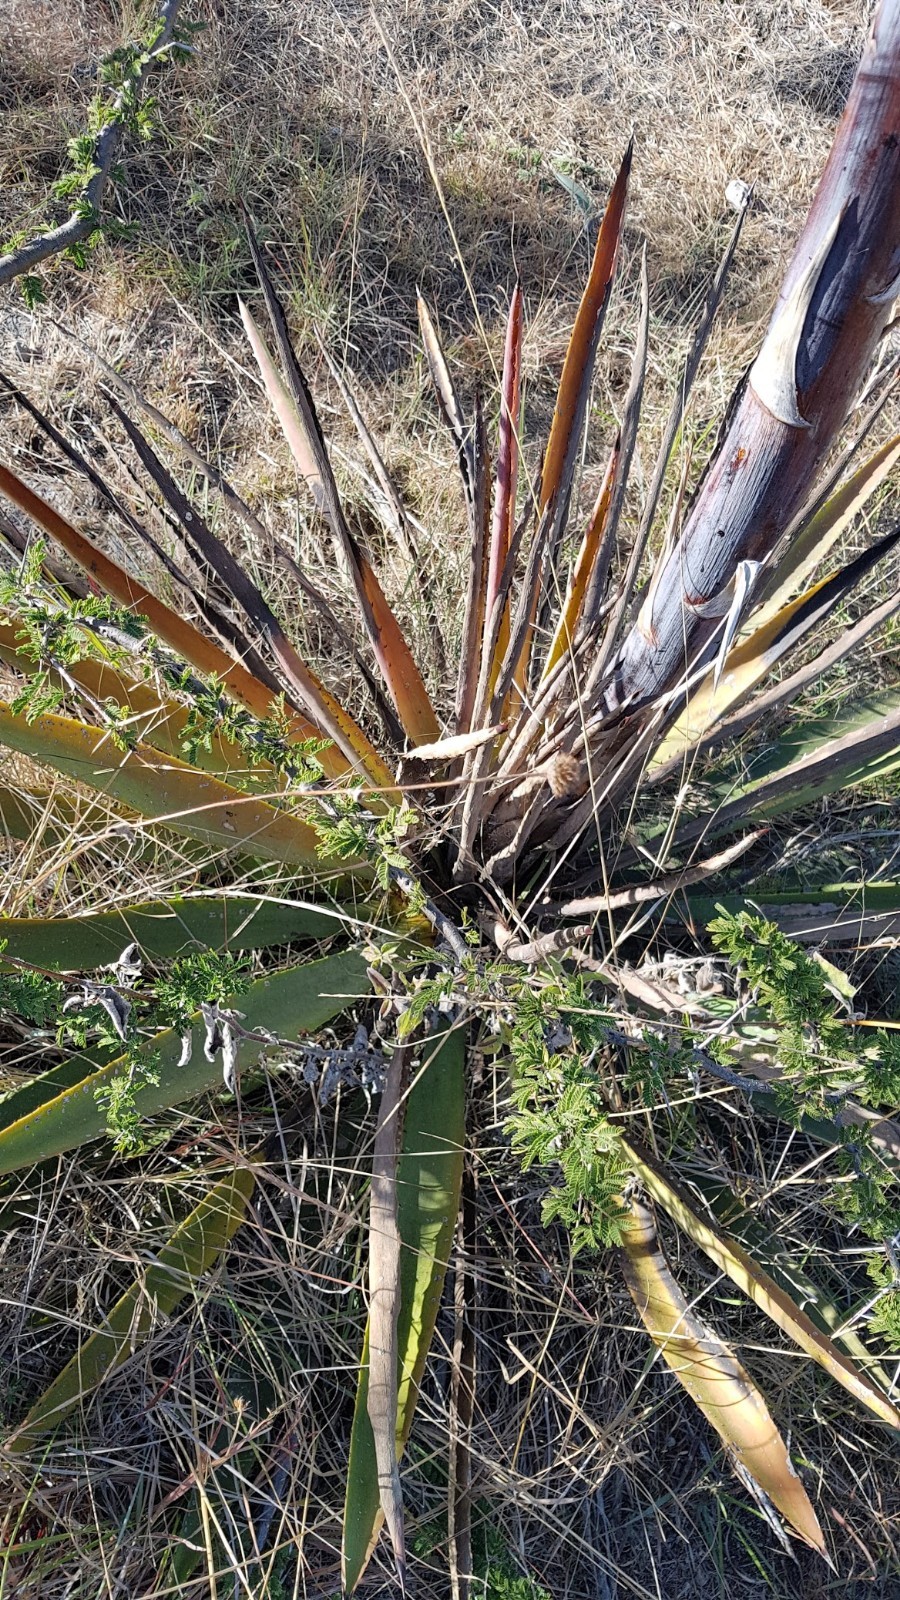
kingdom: Plantae
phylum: Tracheophyta
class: Liliopsida
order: Asparagales
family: Asparagaceae
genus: Agave
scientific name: Agave angustifolia
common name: Mescal agave
